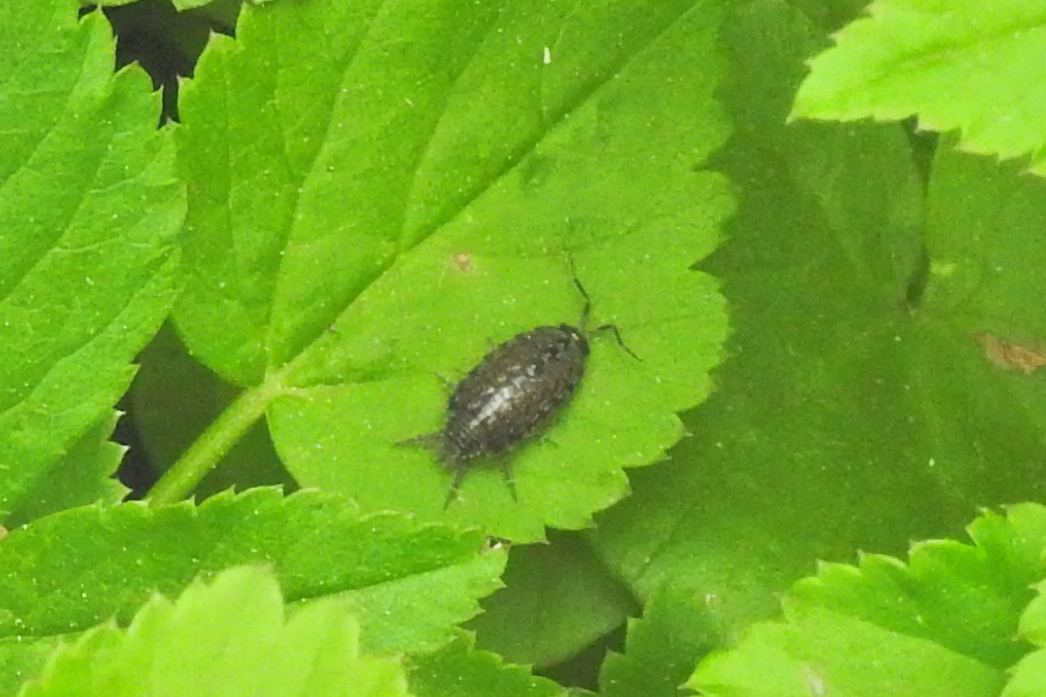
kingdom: Animalia
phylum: Arthropoda
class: Malacostraca
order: Isopoda
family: Philosciidae
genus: Philoscia
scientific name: Philoscia muscorum
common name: Common striped woodlouse
